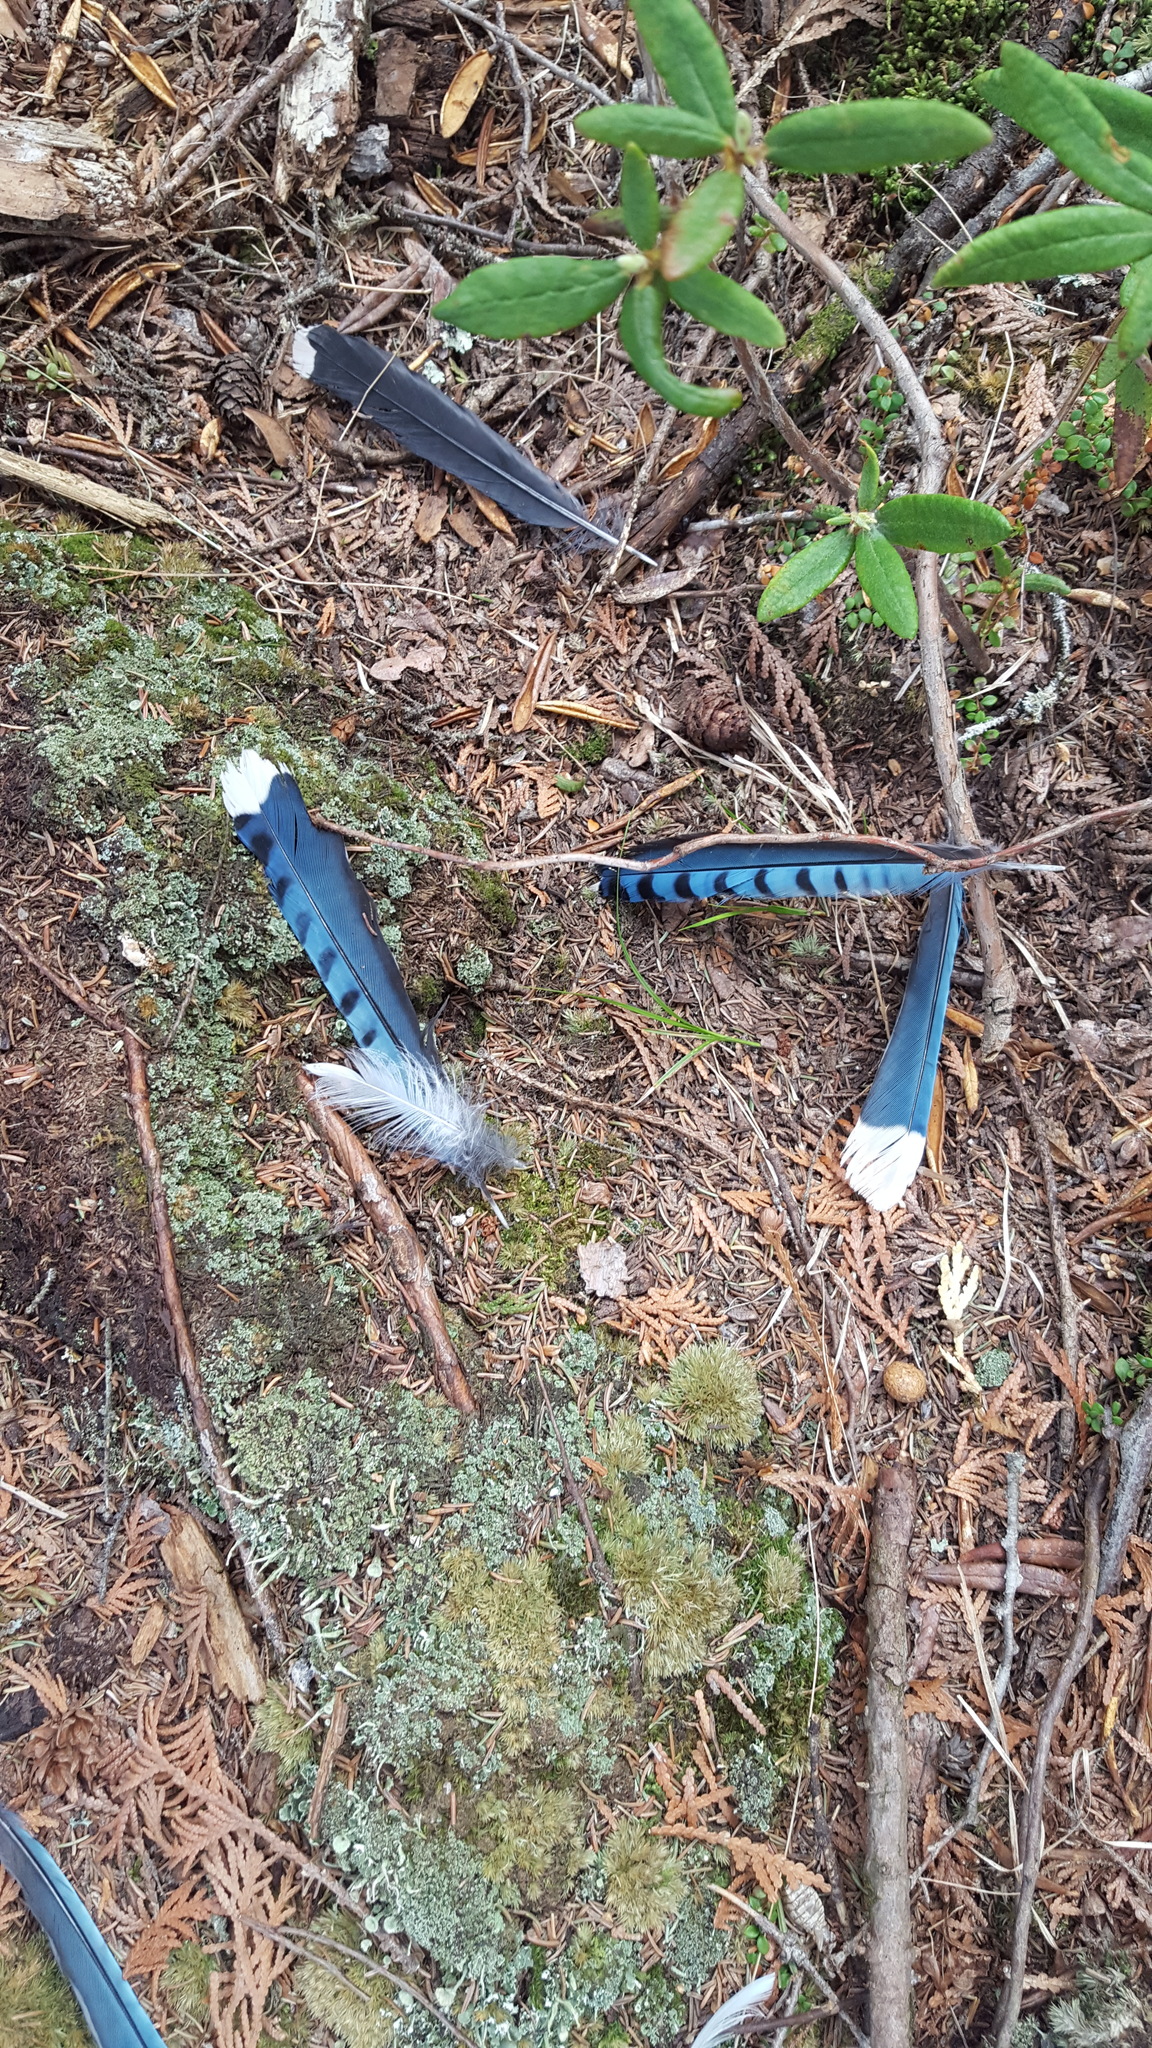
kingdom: Animalia
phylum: Chordata
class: Aves
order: Passeriformes
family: Corvidae
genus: Cyanocitta
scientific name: Cyanocitta cristata
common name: Blue jay
